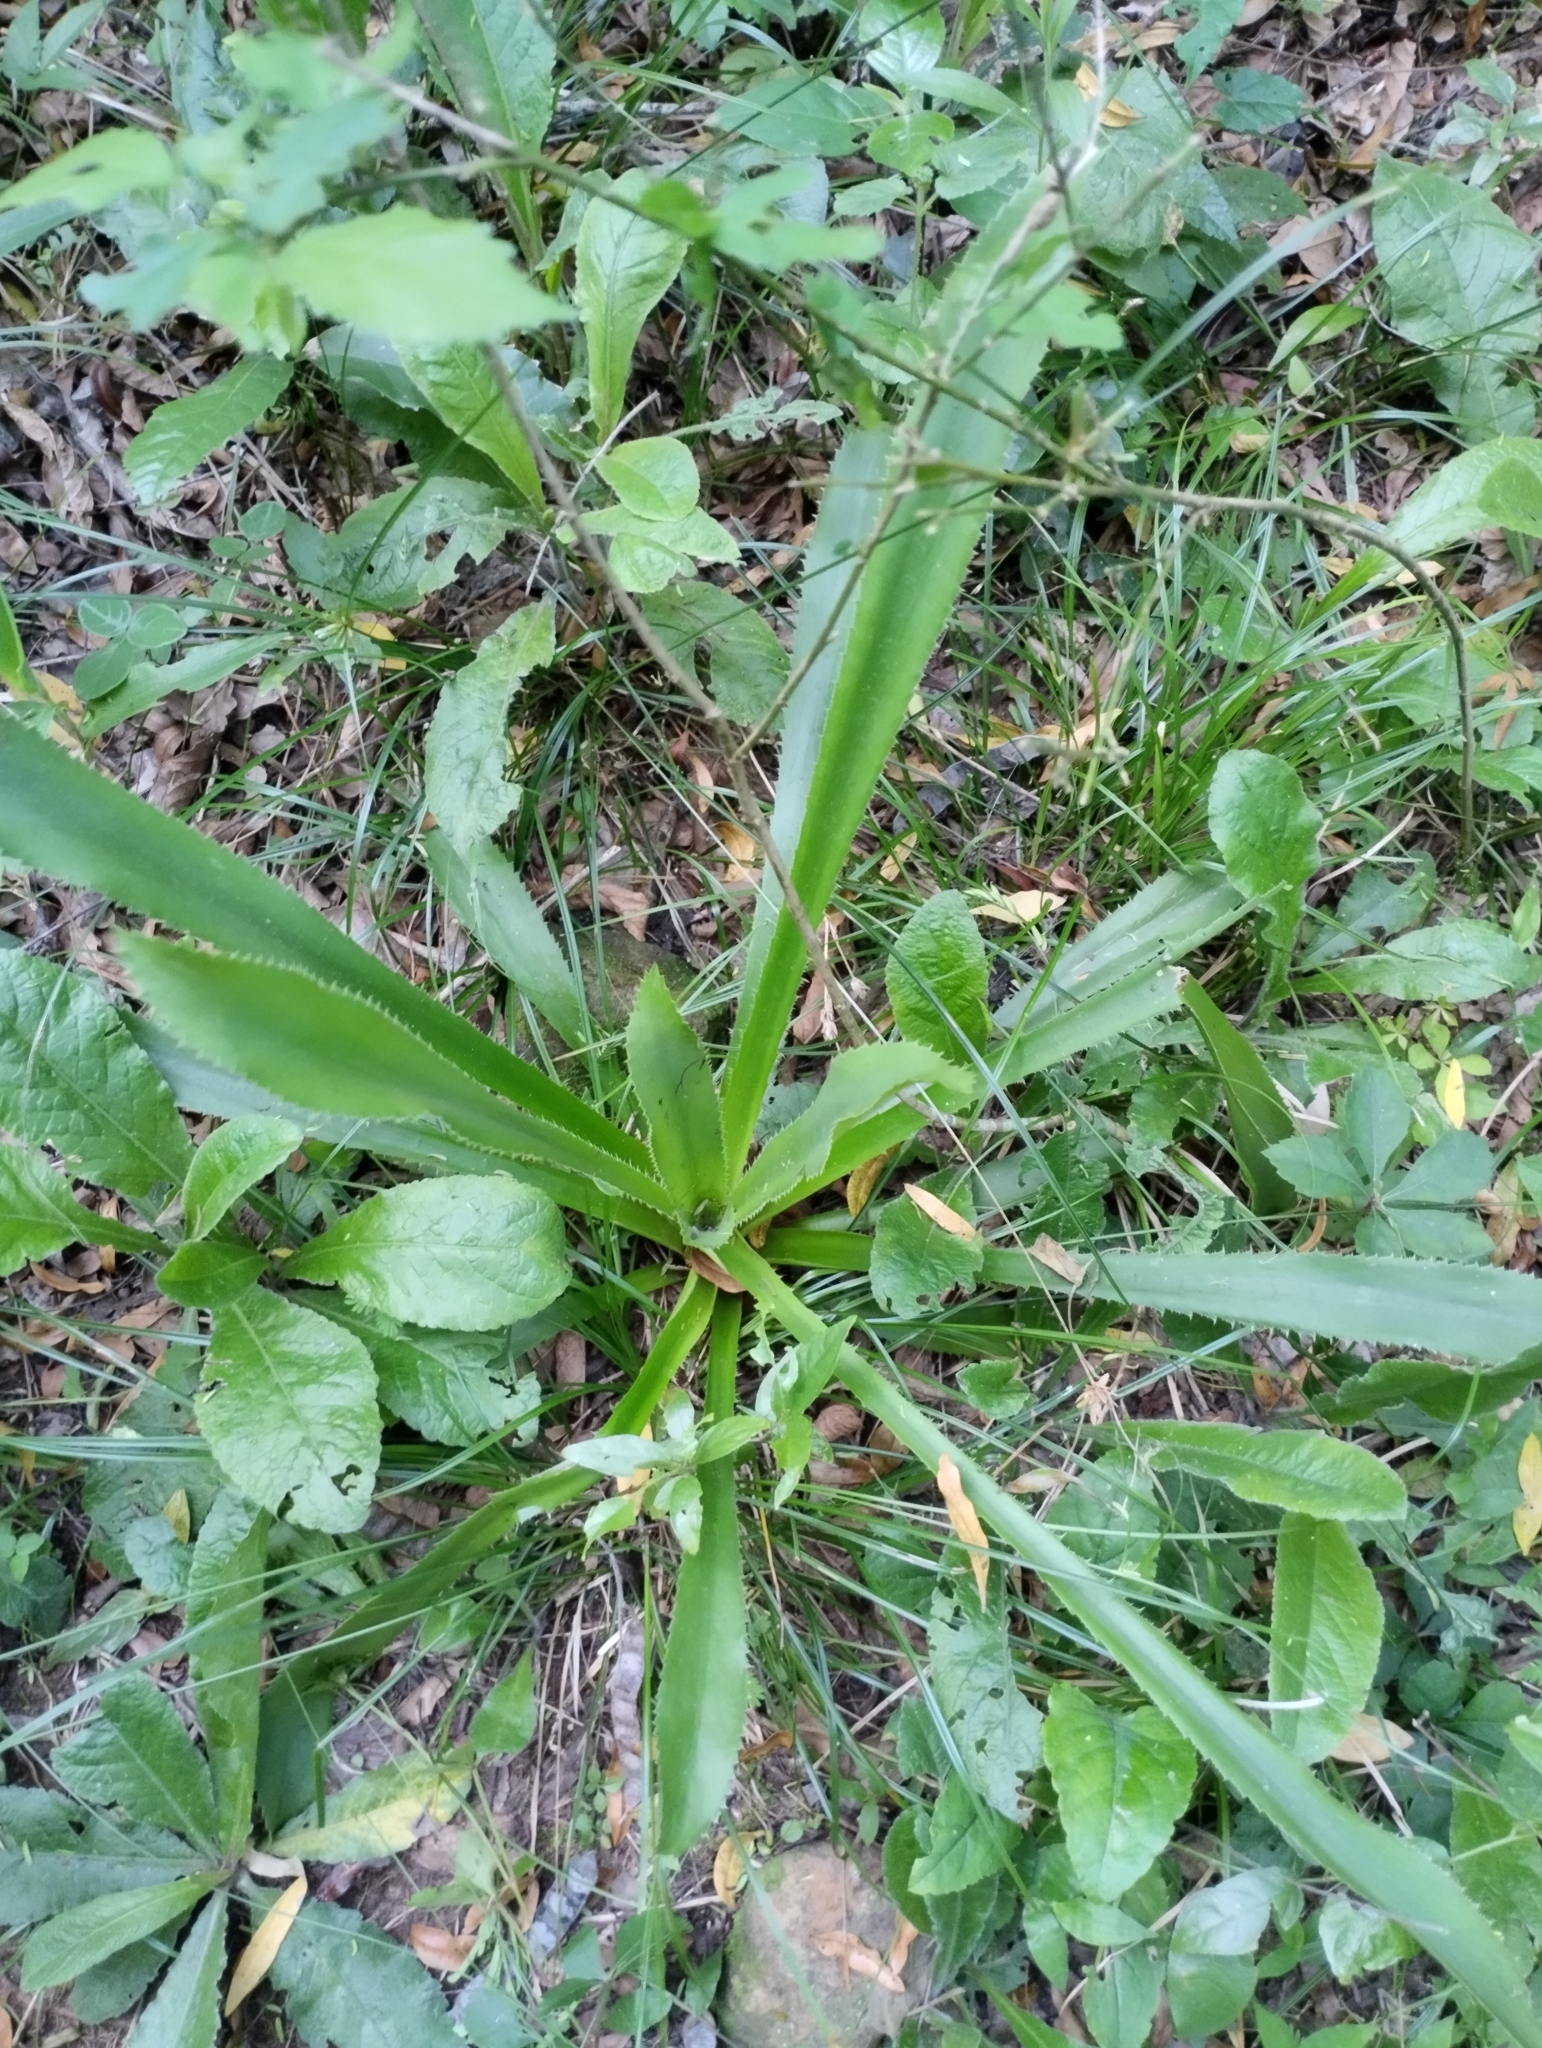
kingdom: Plantae
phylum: Tracheophyta
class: Magnoliopsida
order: Apiales
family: Apiaceae
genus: Eryngium
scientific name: Eryngium elegans
